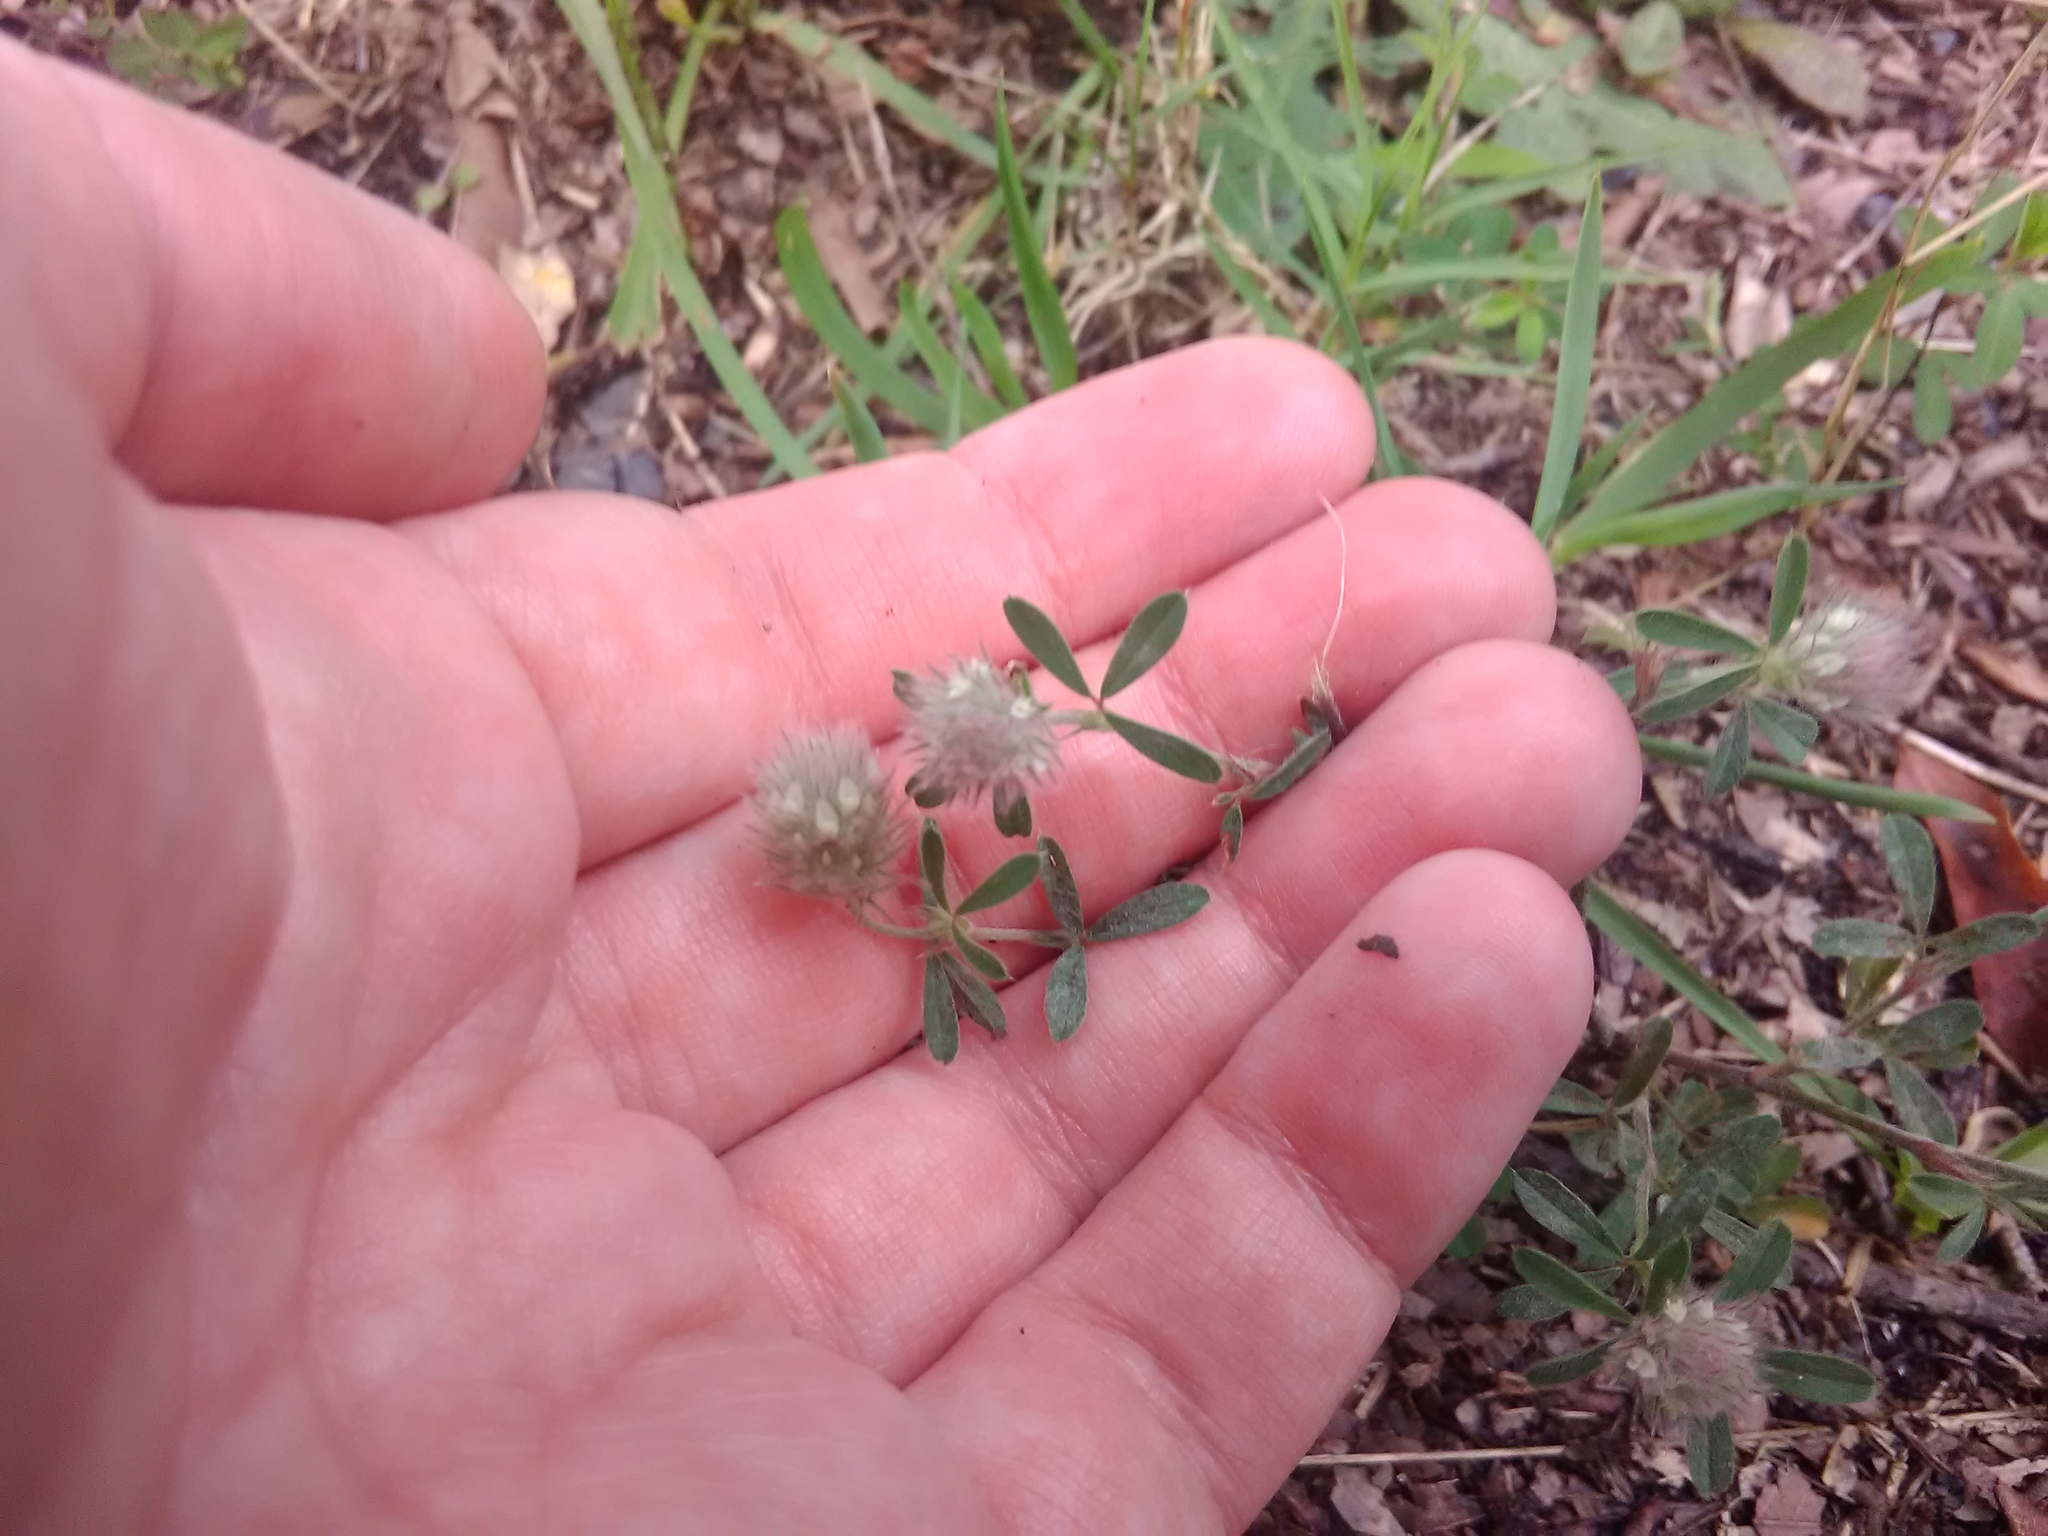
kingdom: Plantae
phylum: Tracheophyta
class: Magnoliopsida
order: Fabales
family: Fabaceae
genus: Trifolium
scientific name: Trifolium arvense
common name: Hare's-foot clover
